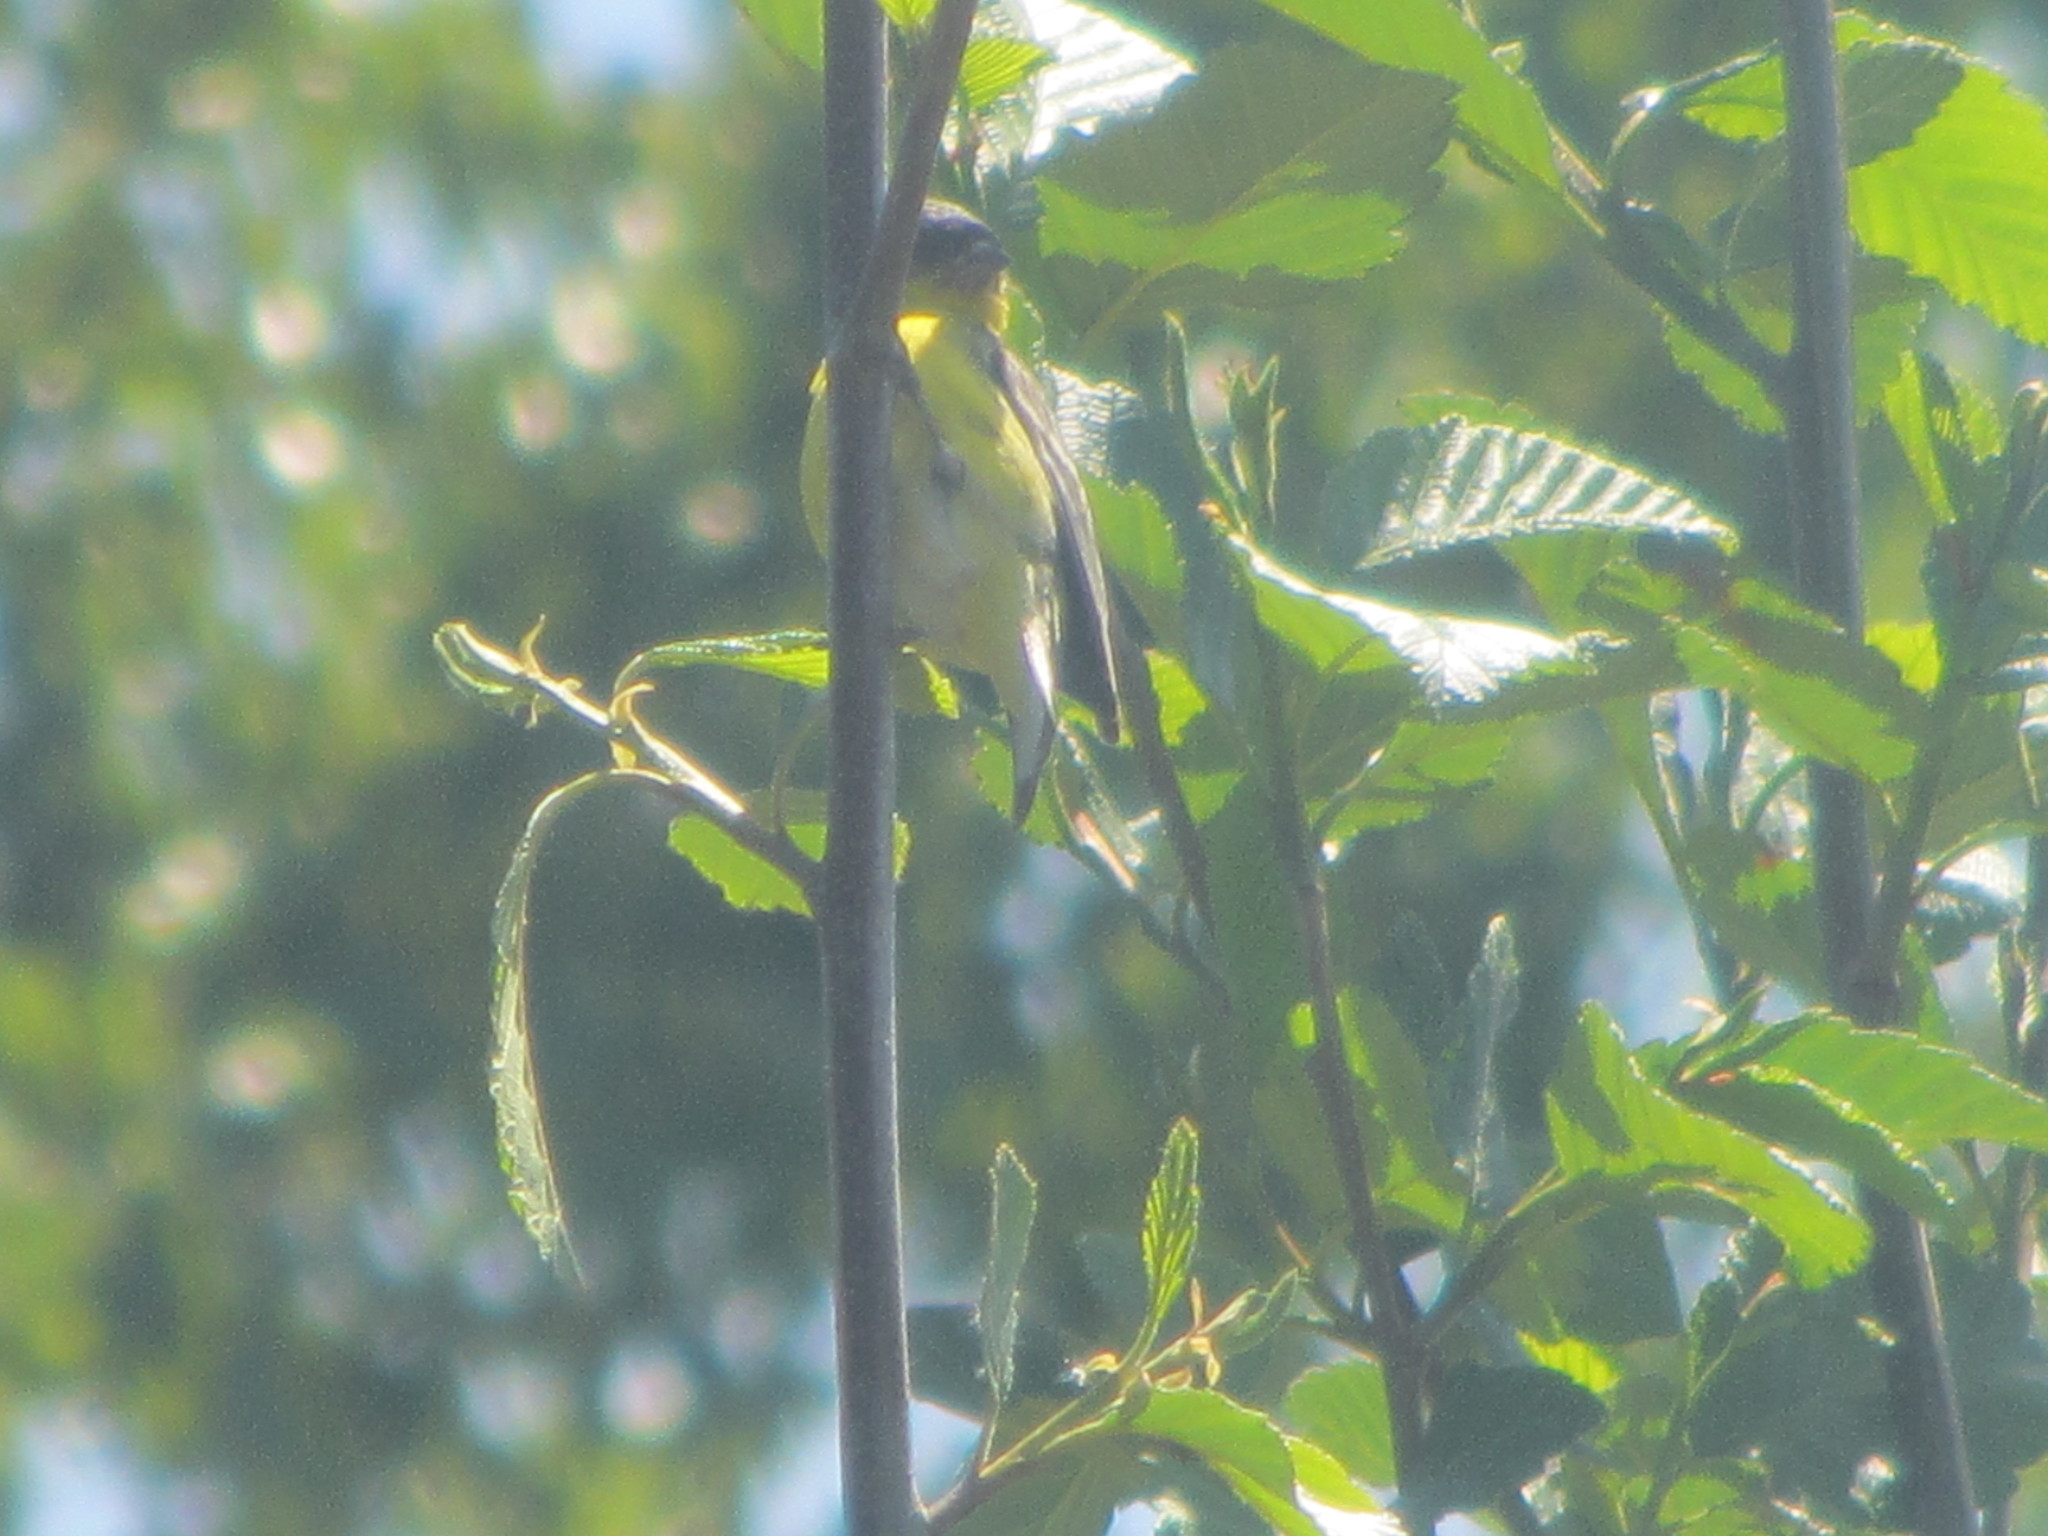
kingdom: Animalia
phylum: Chordata
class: Aves
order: Passeriformes
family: Fringillidae
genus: Spinus
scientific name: Spinus psaltria
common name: Lesser goldfinch
